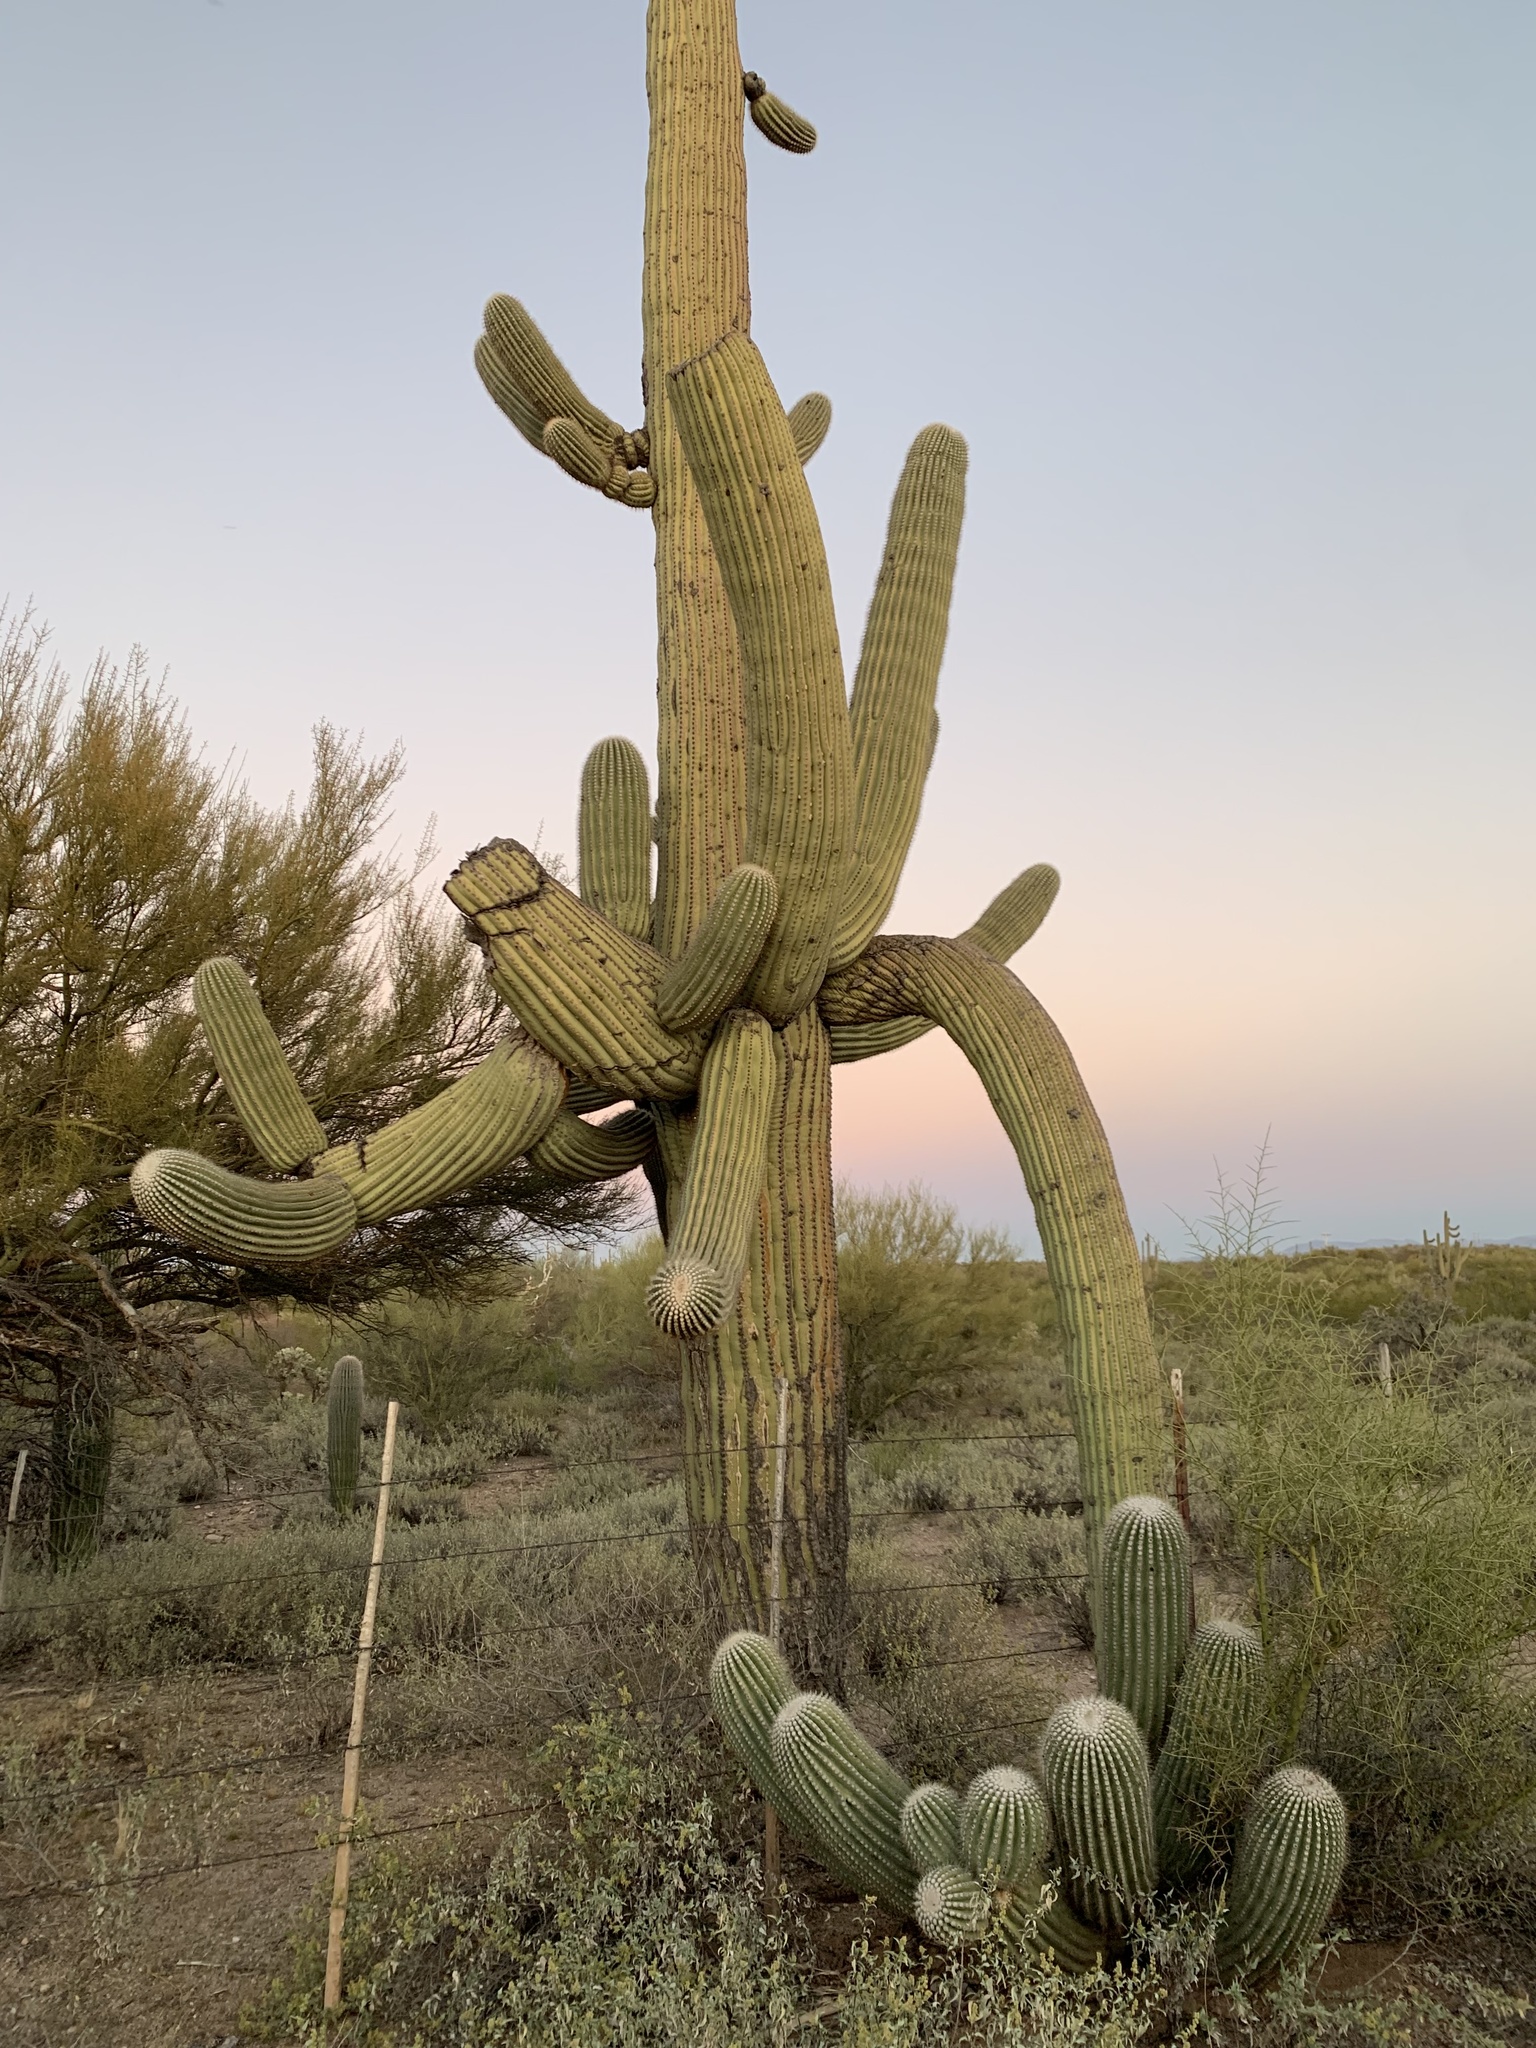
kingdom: Plantae
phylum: Tracheophyta
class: Magnoliopsida
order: Caryophyllales
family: Cactaceae
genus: Carnegiea
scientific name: Carnegiea gigantea
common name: Saguaro
